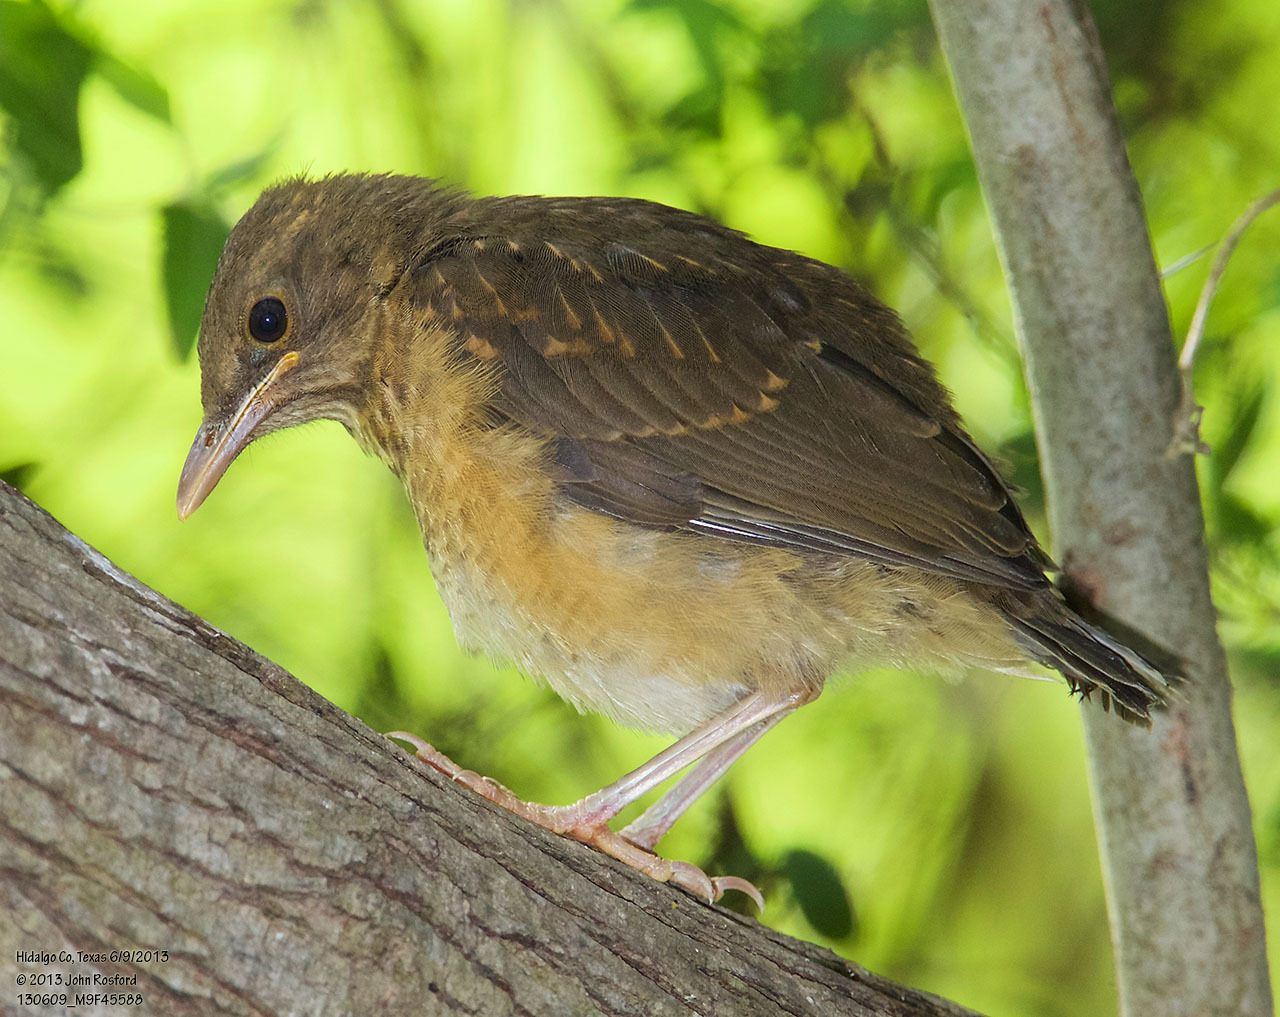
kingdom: Animalia
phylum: Chordata
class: Aves
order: Passeriformes
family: Turdidae
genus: Turdus
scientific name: Turdus grayi
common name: Clay-colored thrush
